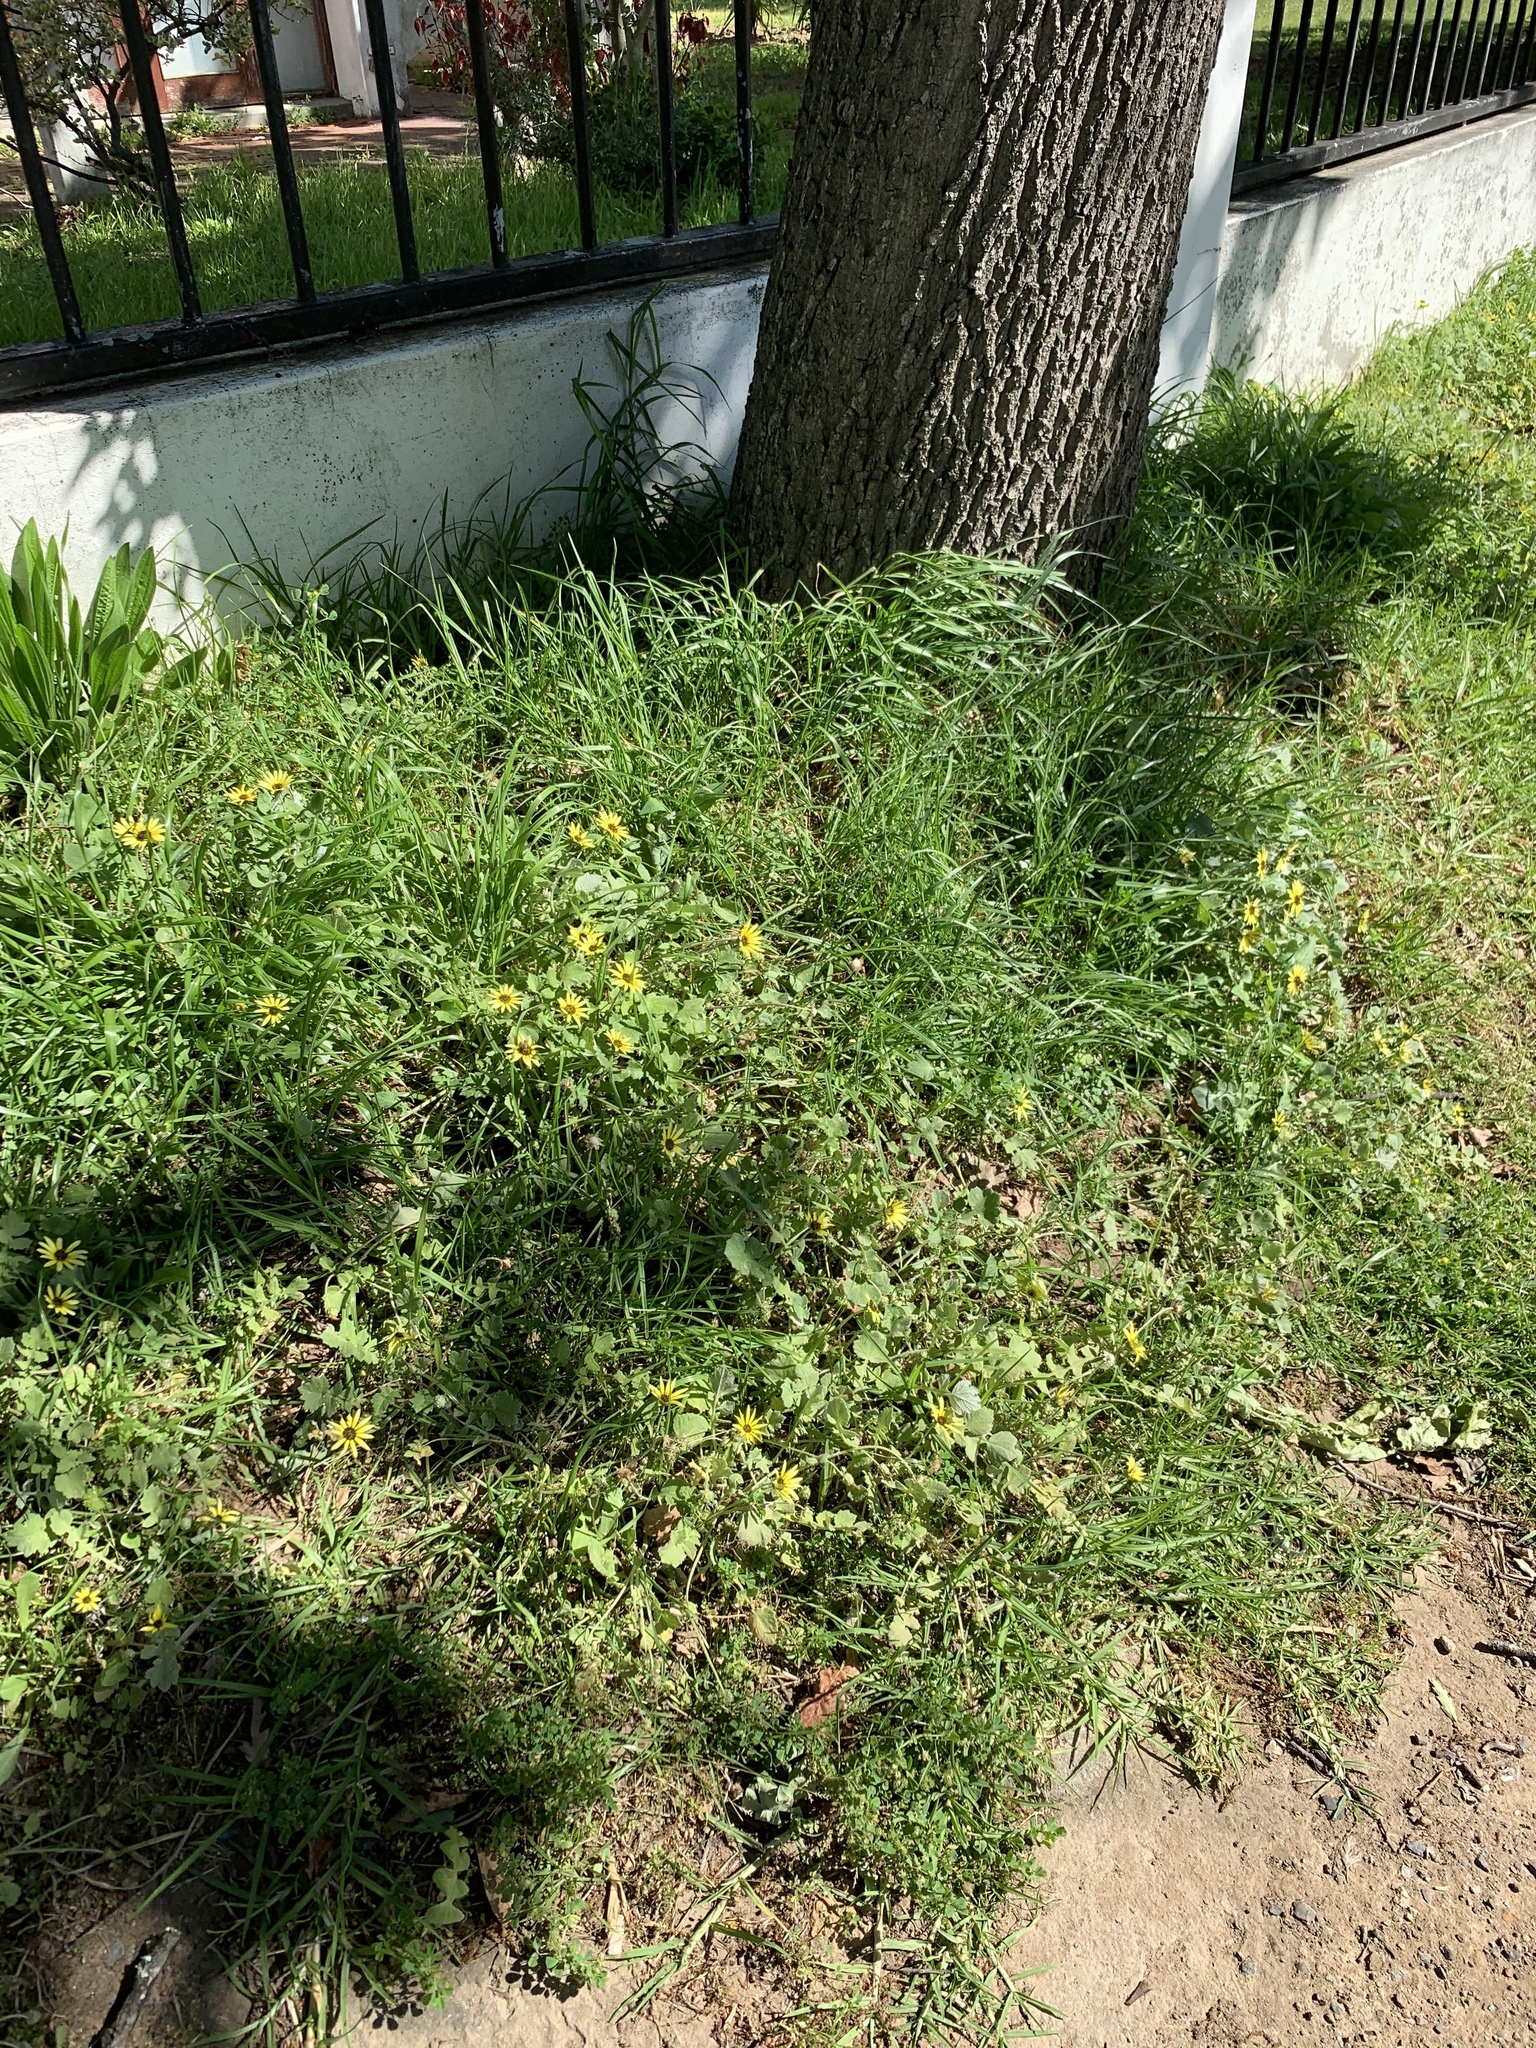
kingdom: Plantae
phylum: Tracheophyta
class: Magnoliopsida
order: Asterales
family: Asteraceae
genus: Arctotheca
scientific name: Arctotheca calendula
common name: Capeweed
